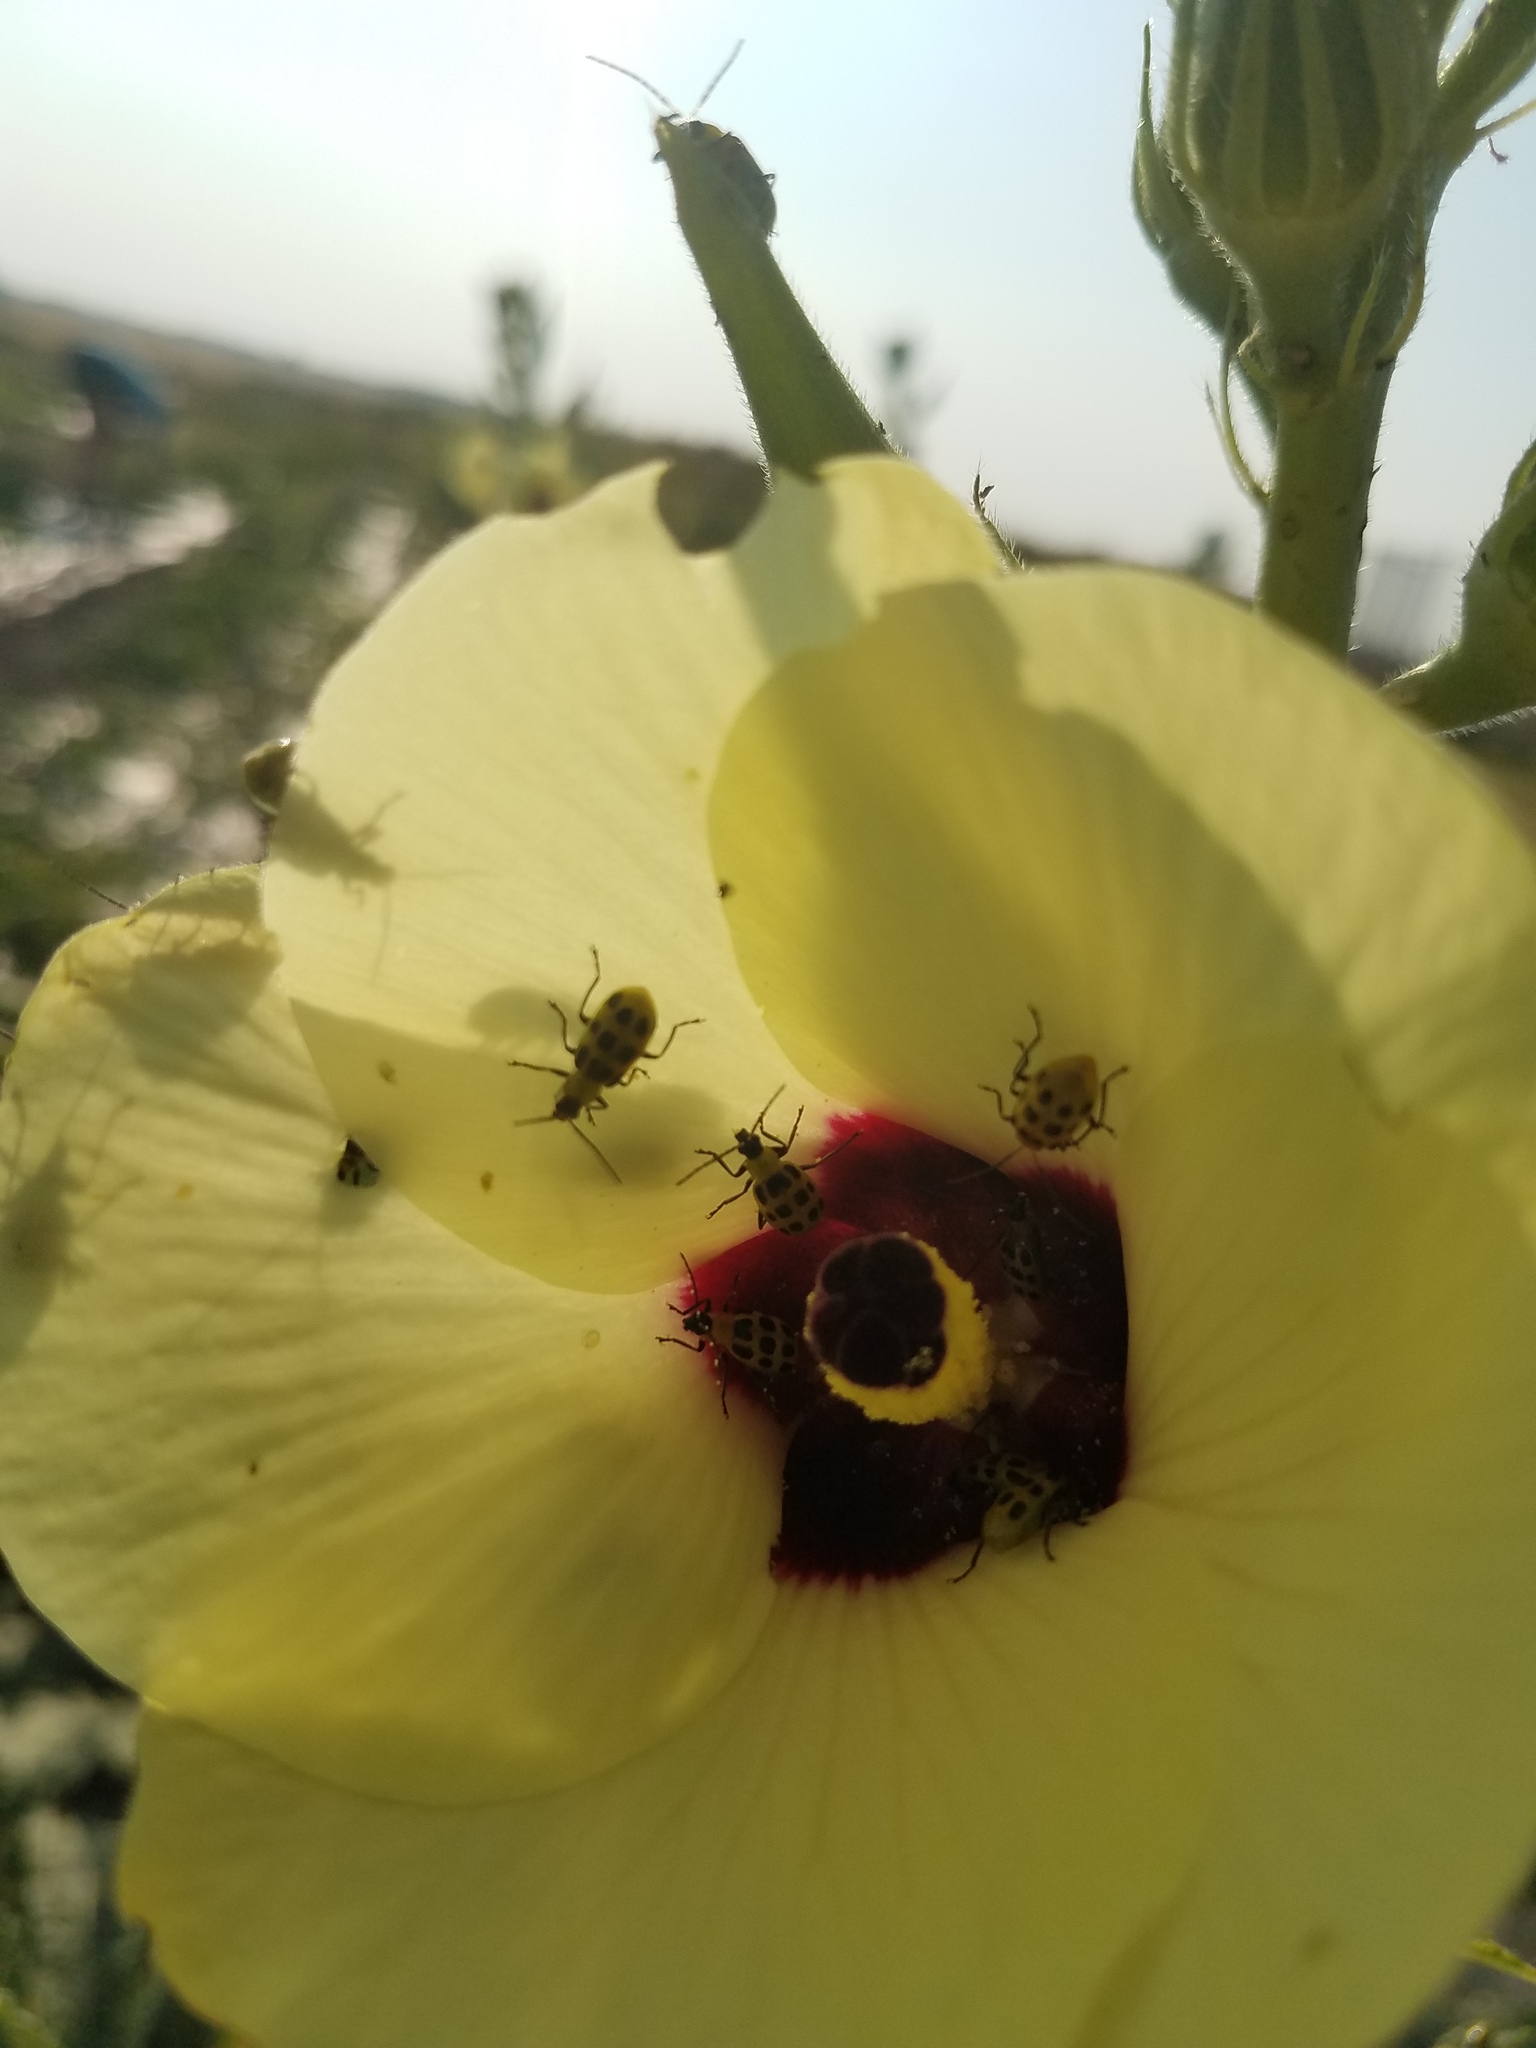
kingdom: Animalia
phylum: Arthropoda
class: Insecta
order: Coleoptera
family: Chrysomelidae
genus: Diabrotica
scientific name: Diabrotica undecimpunctata
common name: Spotted cucumber beetle
